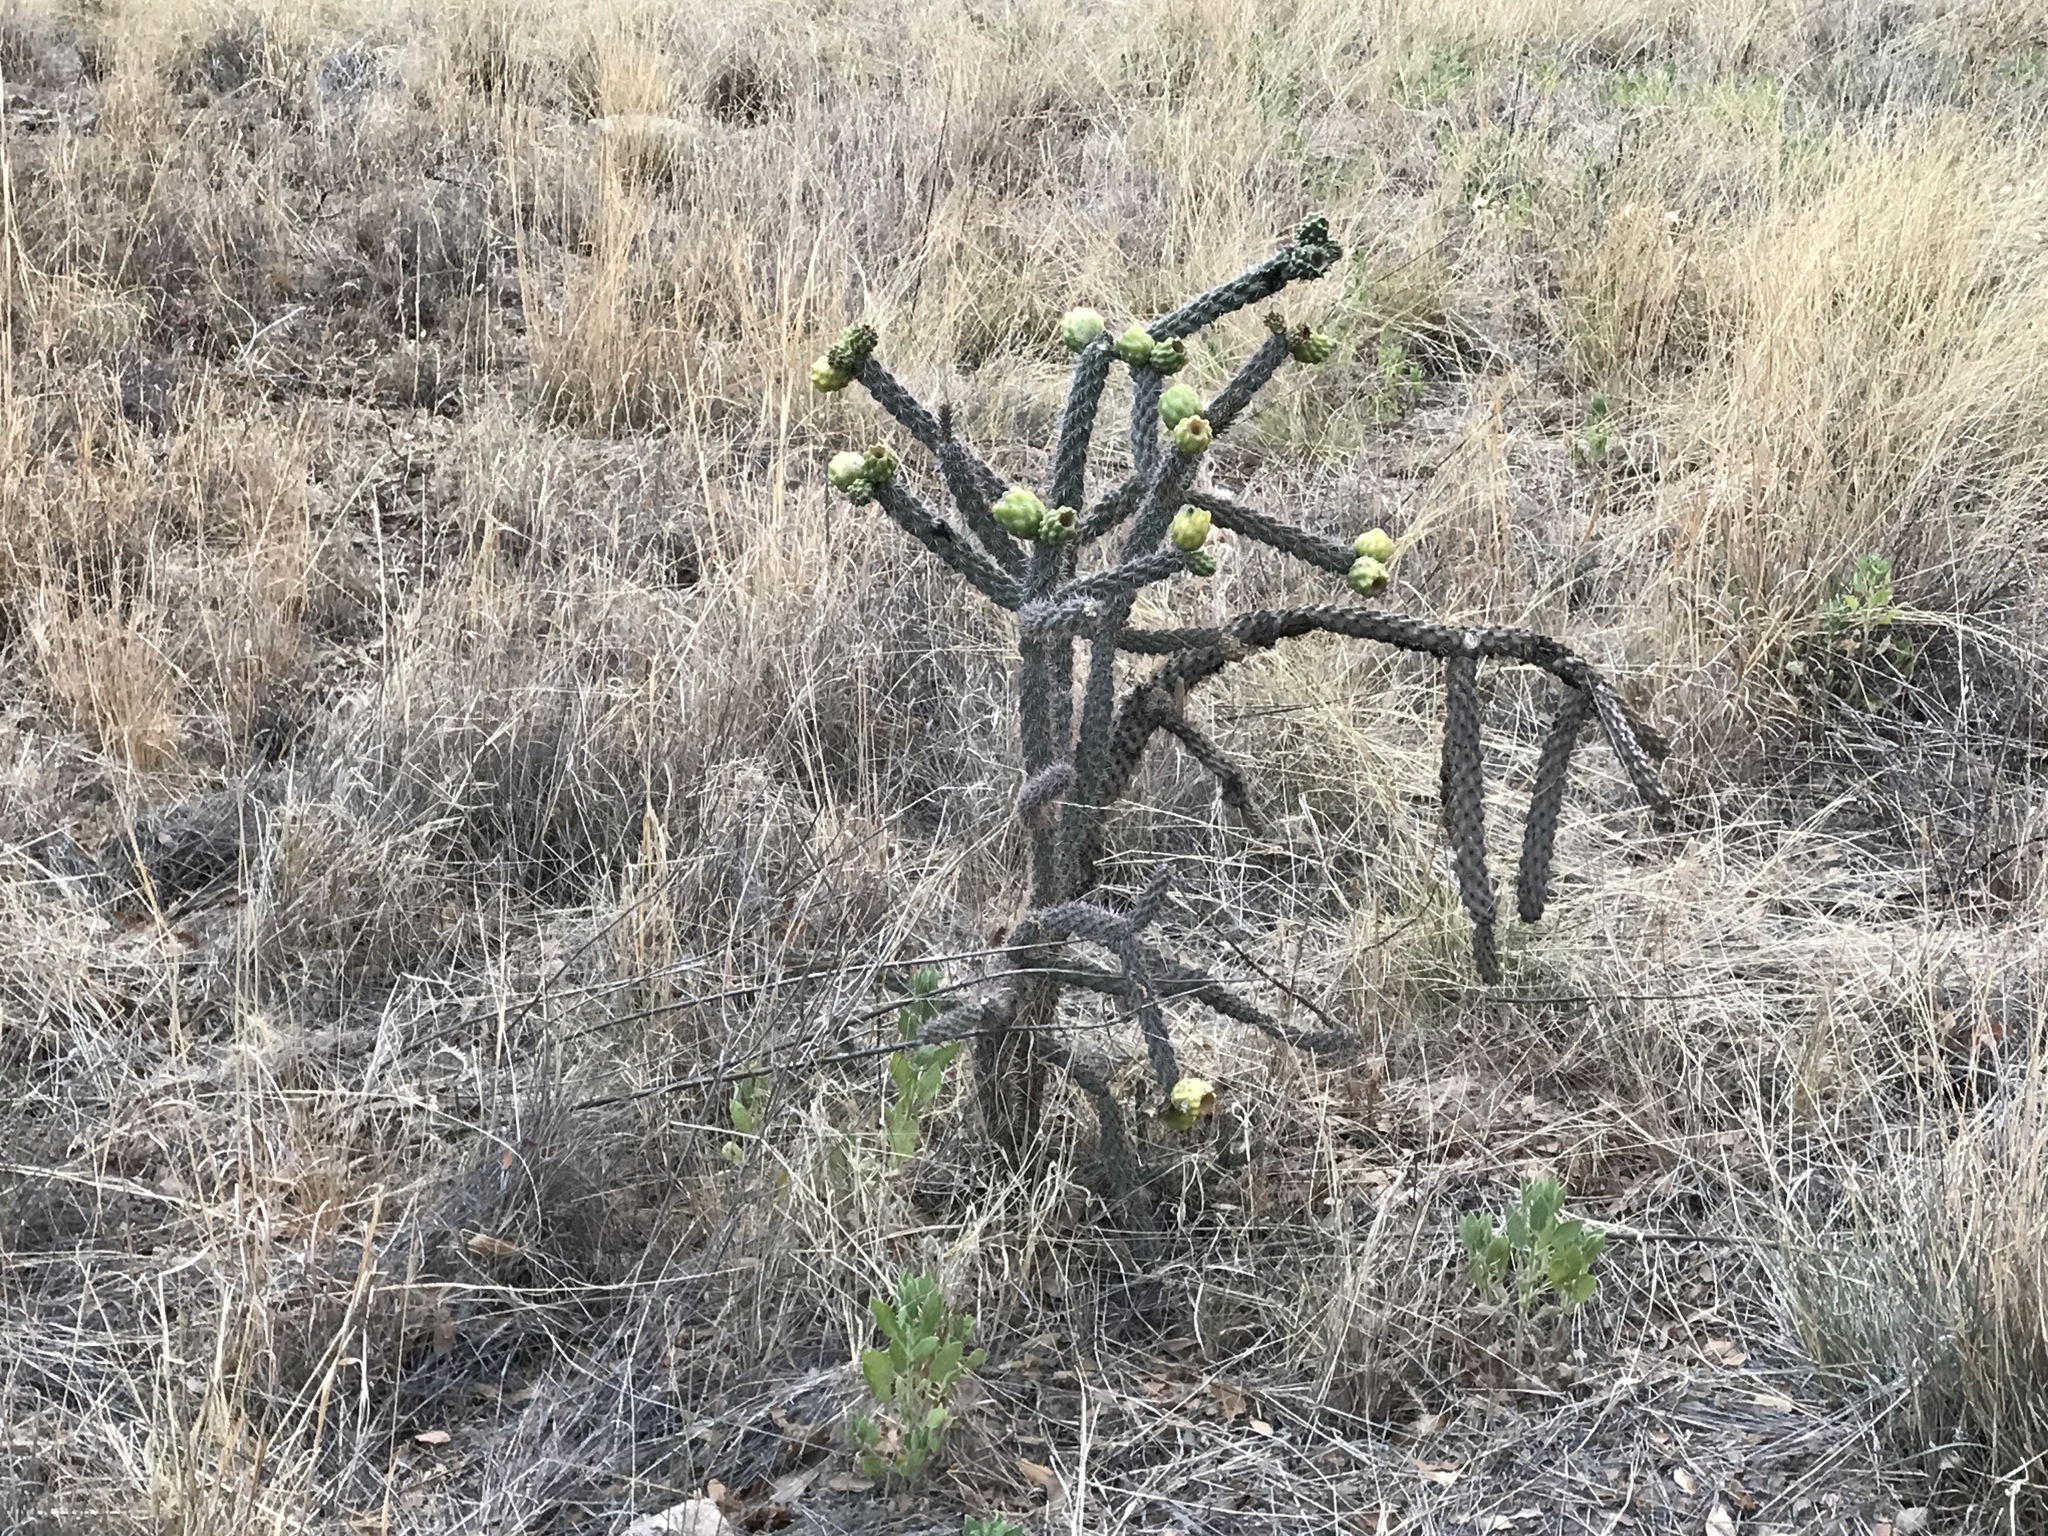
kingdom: Plantae
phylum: Tracheophyta
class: Magnoliopsida
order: Caryophyllales
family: Cactaceae
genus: Cylindropuntia
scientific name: Cylindropuntia imbricata
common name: Candelabrum cactus
